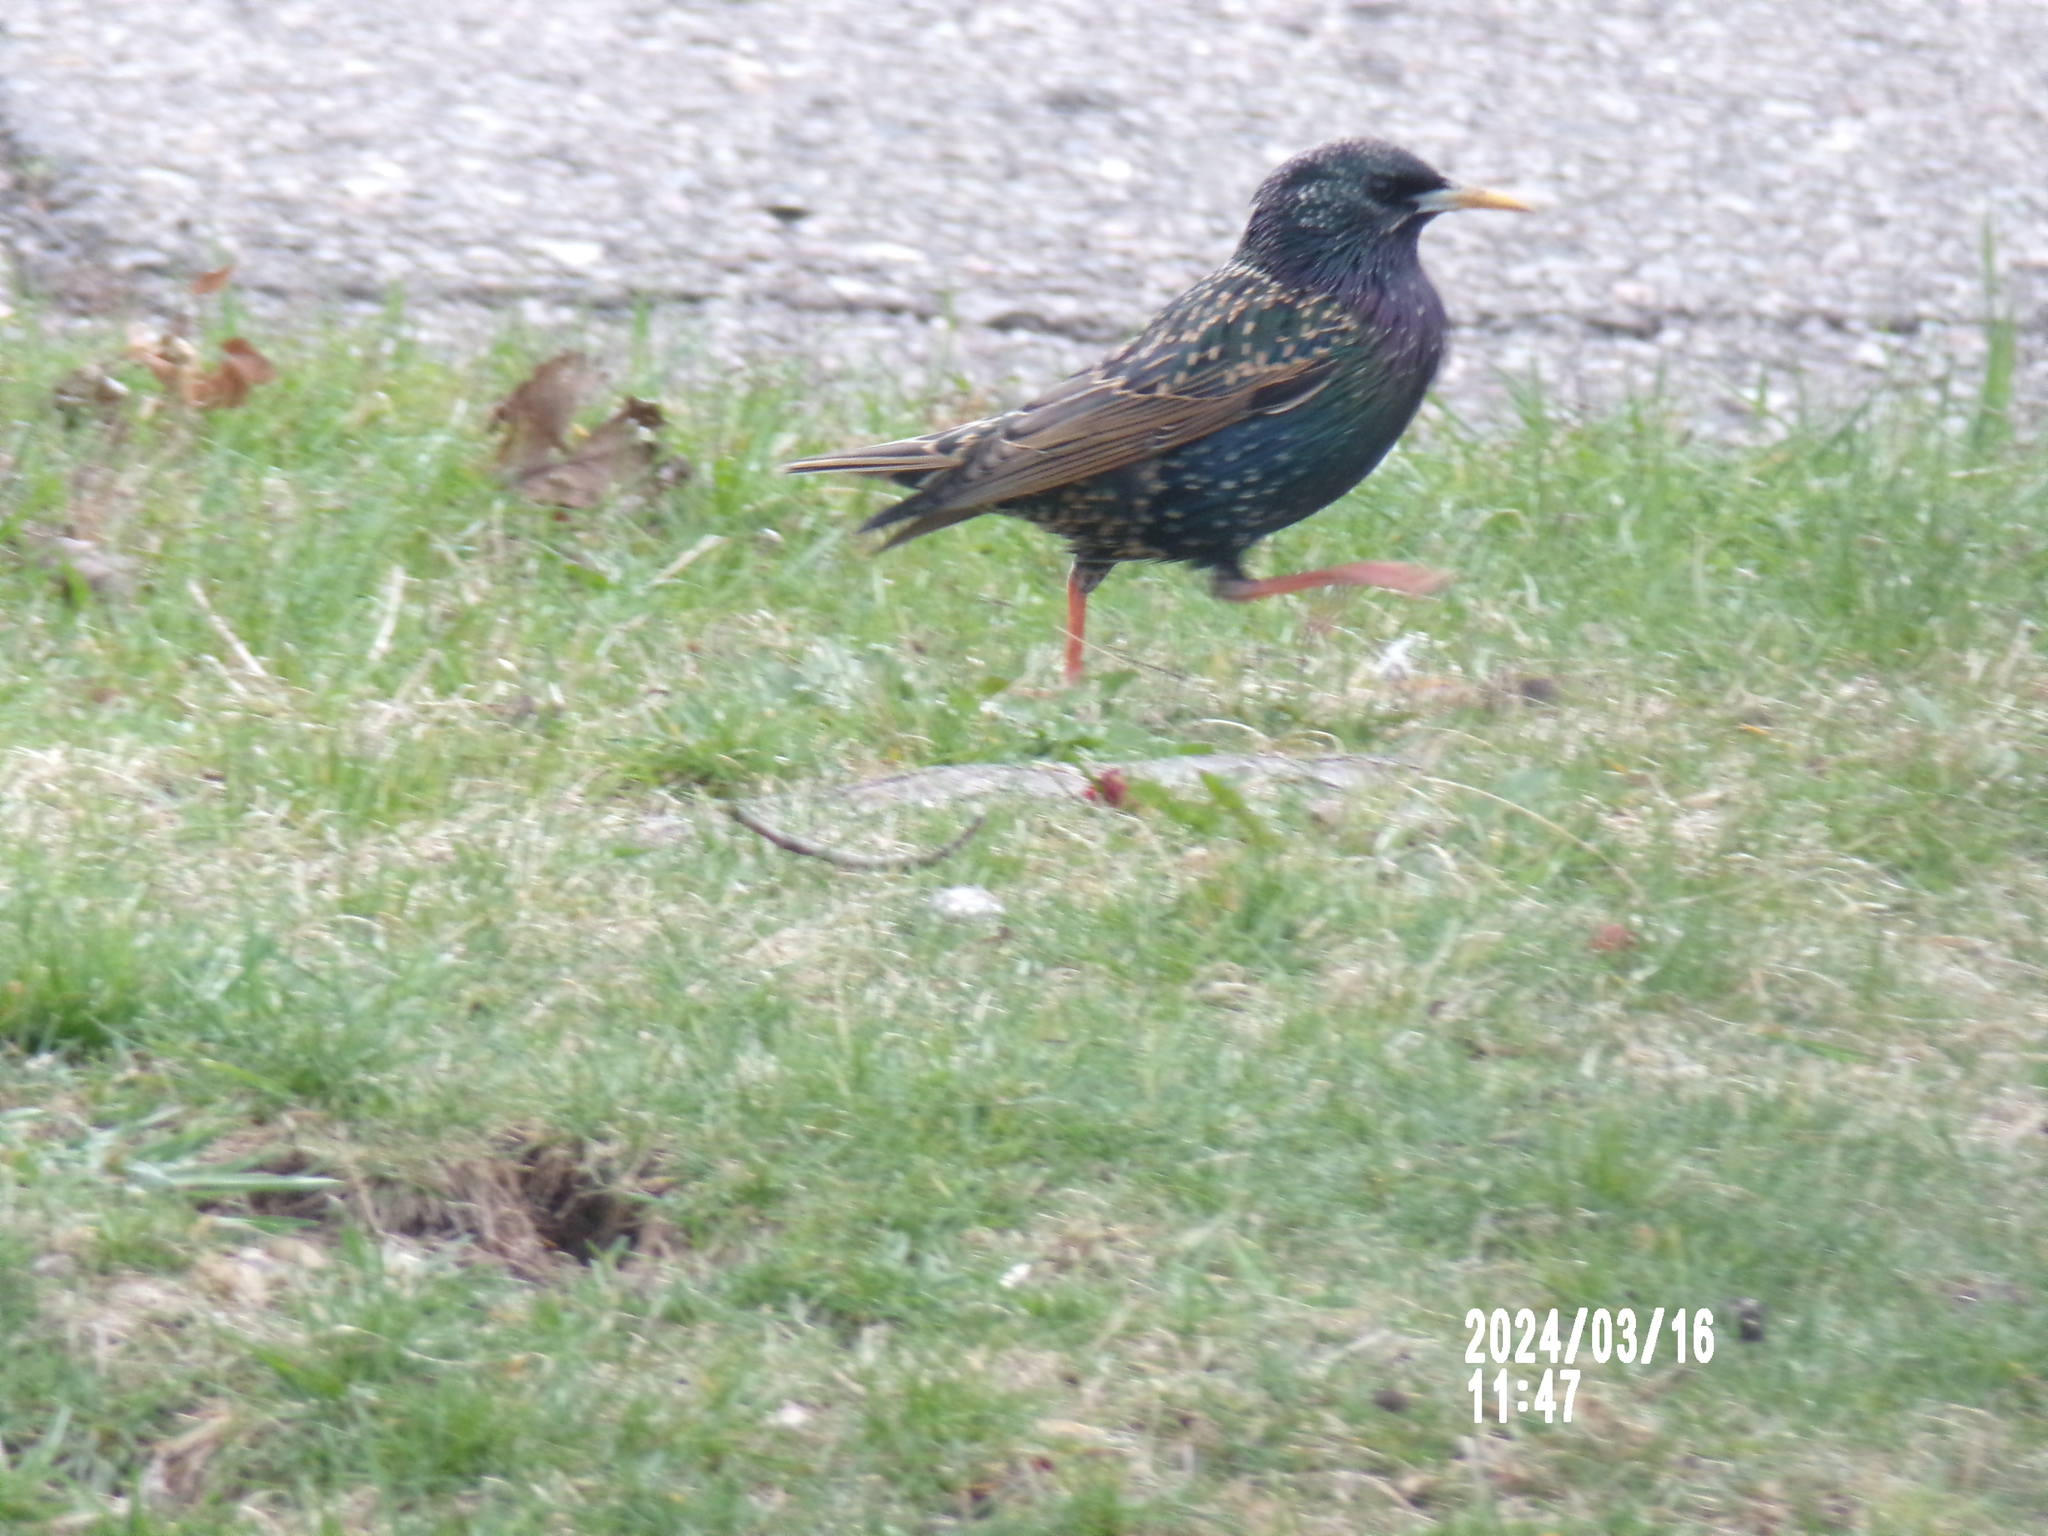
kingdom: Animalia
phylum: Chordata
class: Aves
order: Passeriformes
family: Sturnidae
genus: Sturnus
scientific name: Sturnus vulgaris
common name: Common starling
